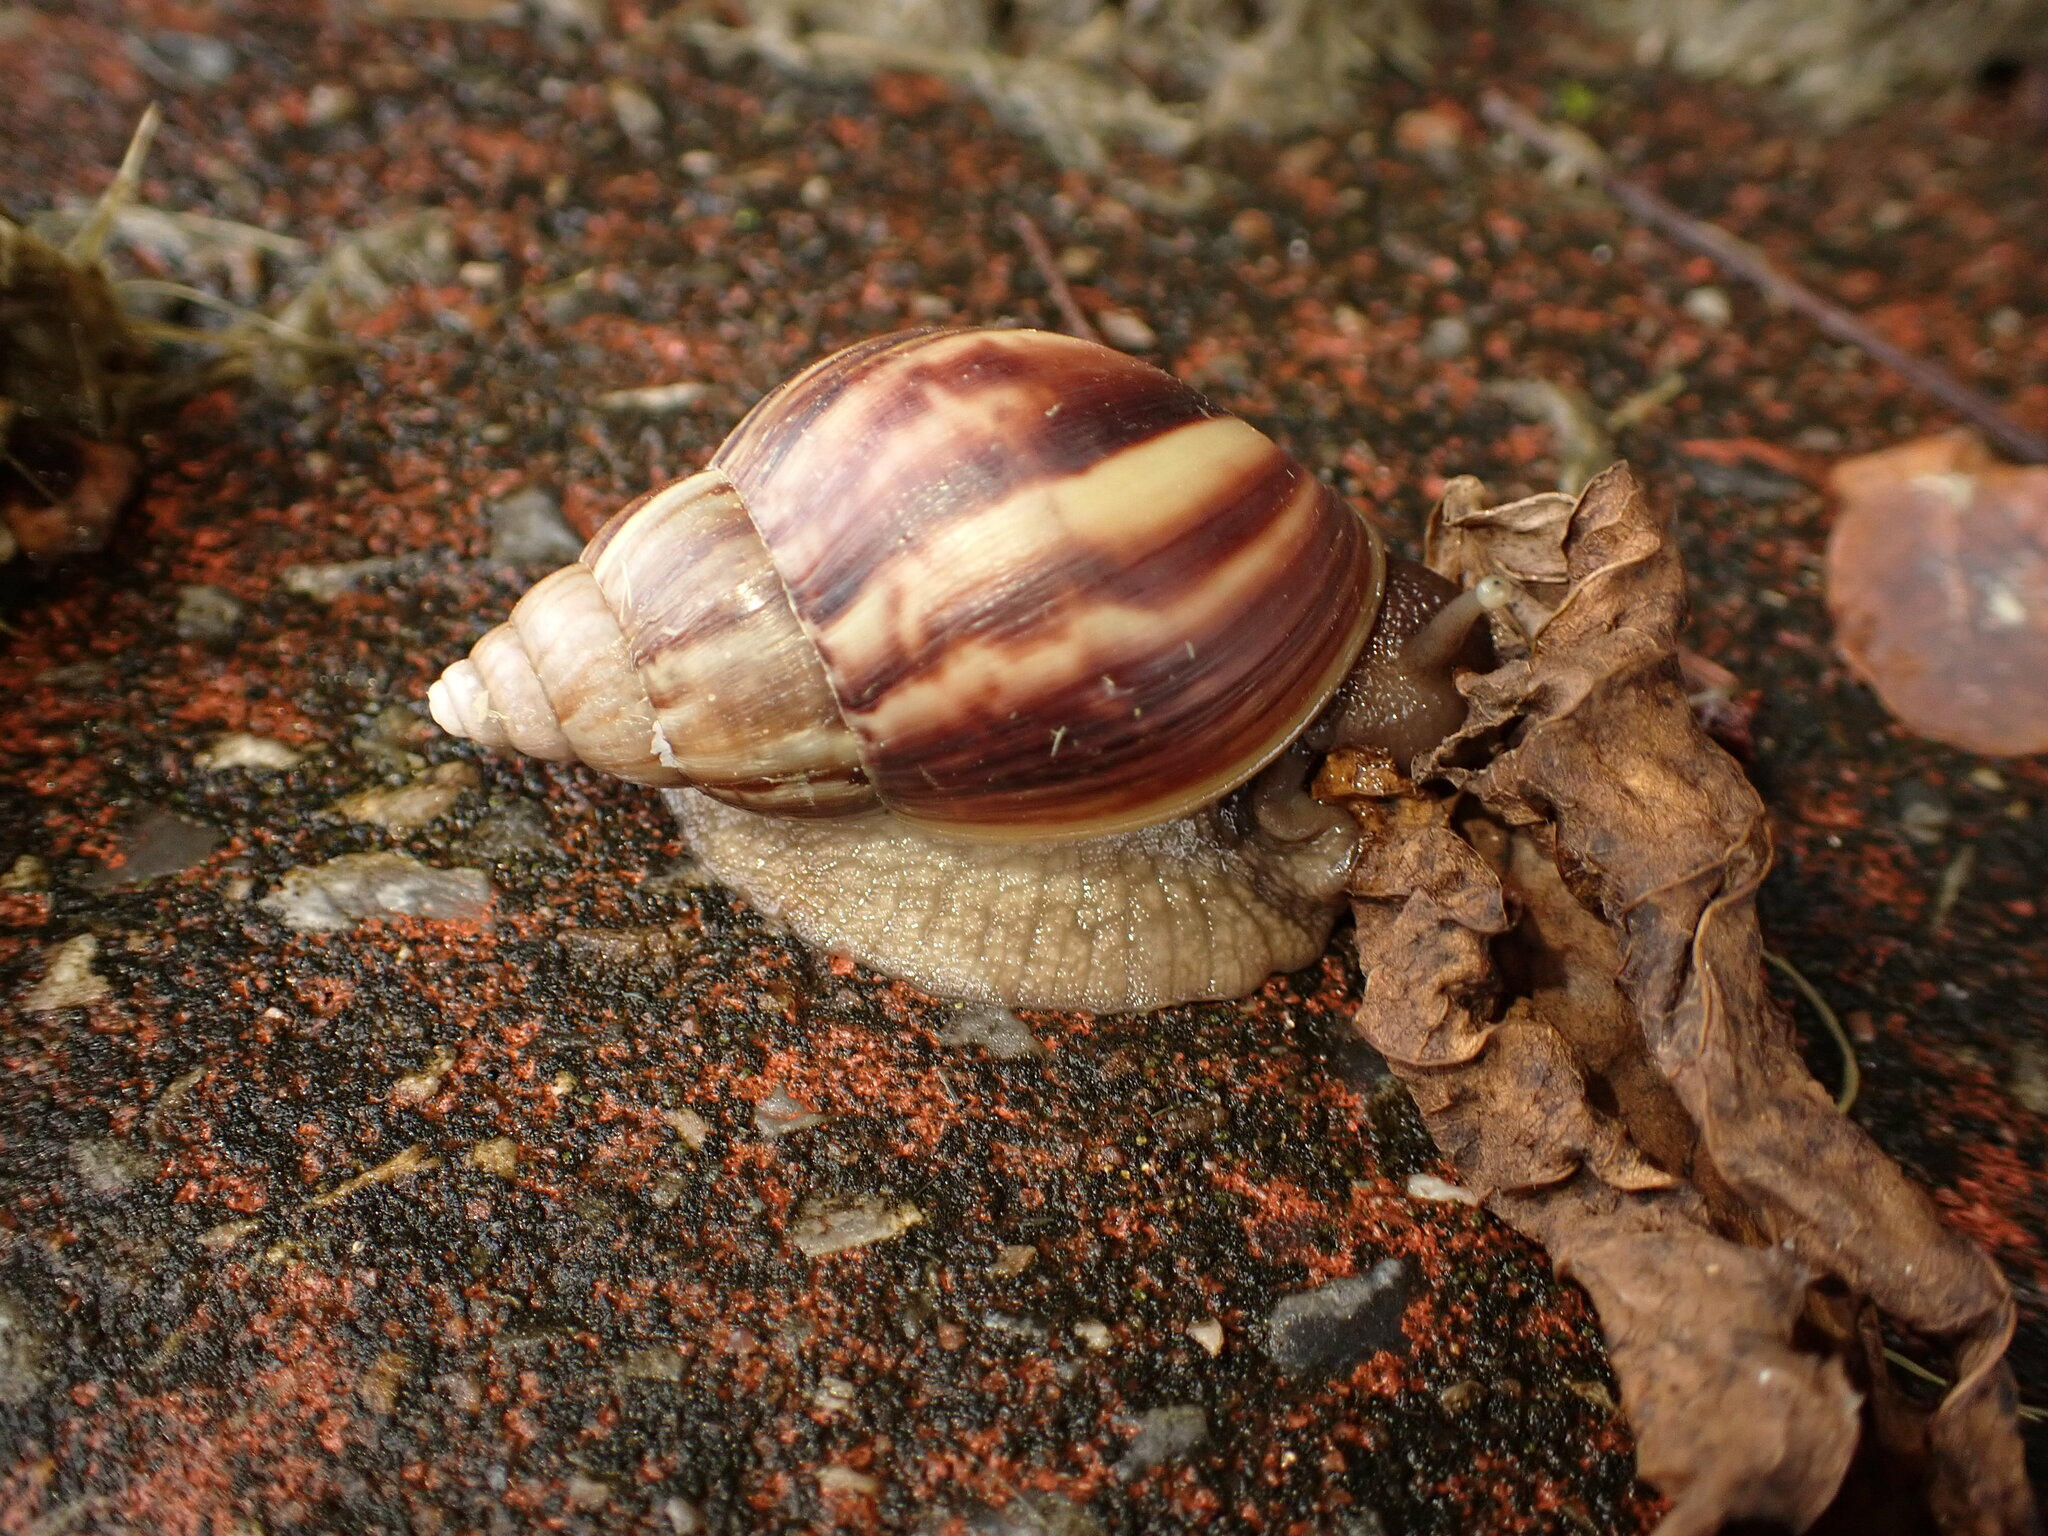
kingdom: Animalia
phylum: Mollusca
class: Gastropoda
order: Stylommatophora
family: Achatinidae
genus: Lissachatina
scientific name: Lissachatina fulica
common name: Giant african snail
